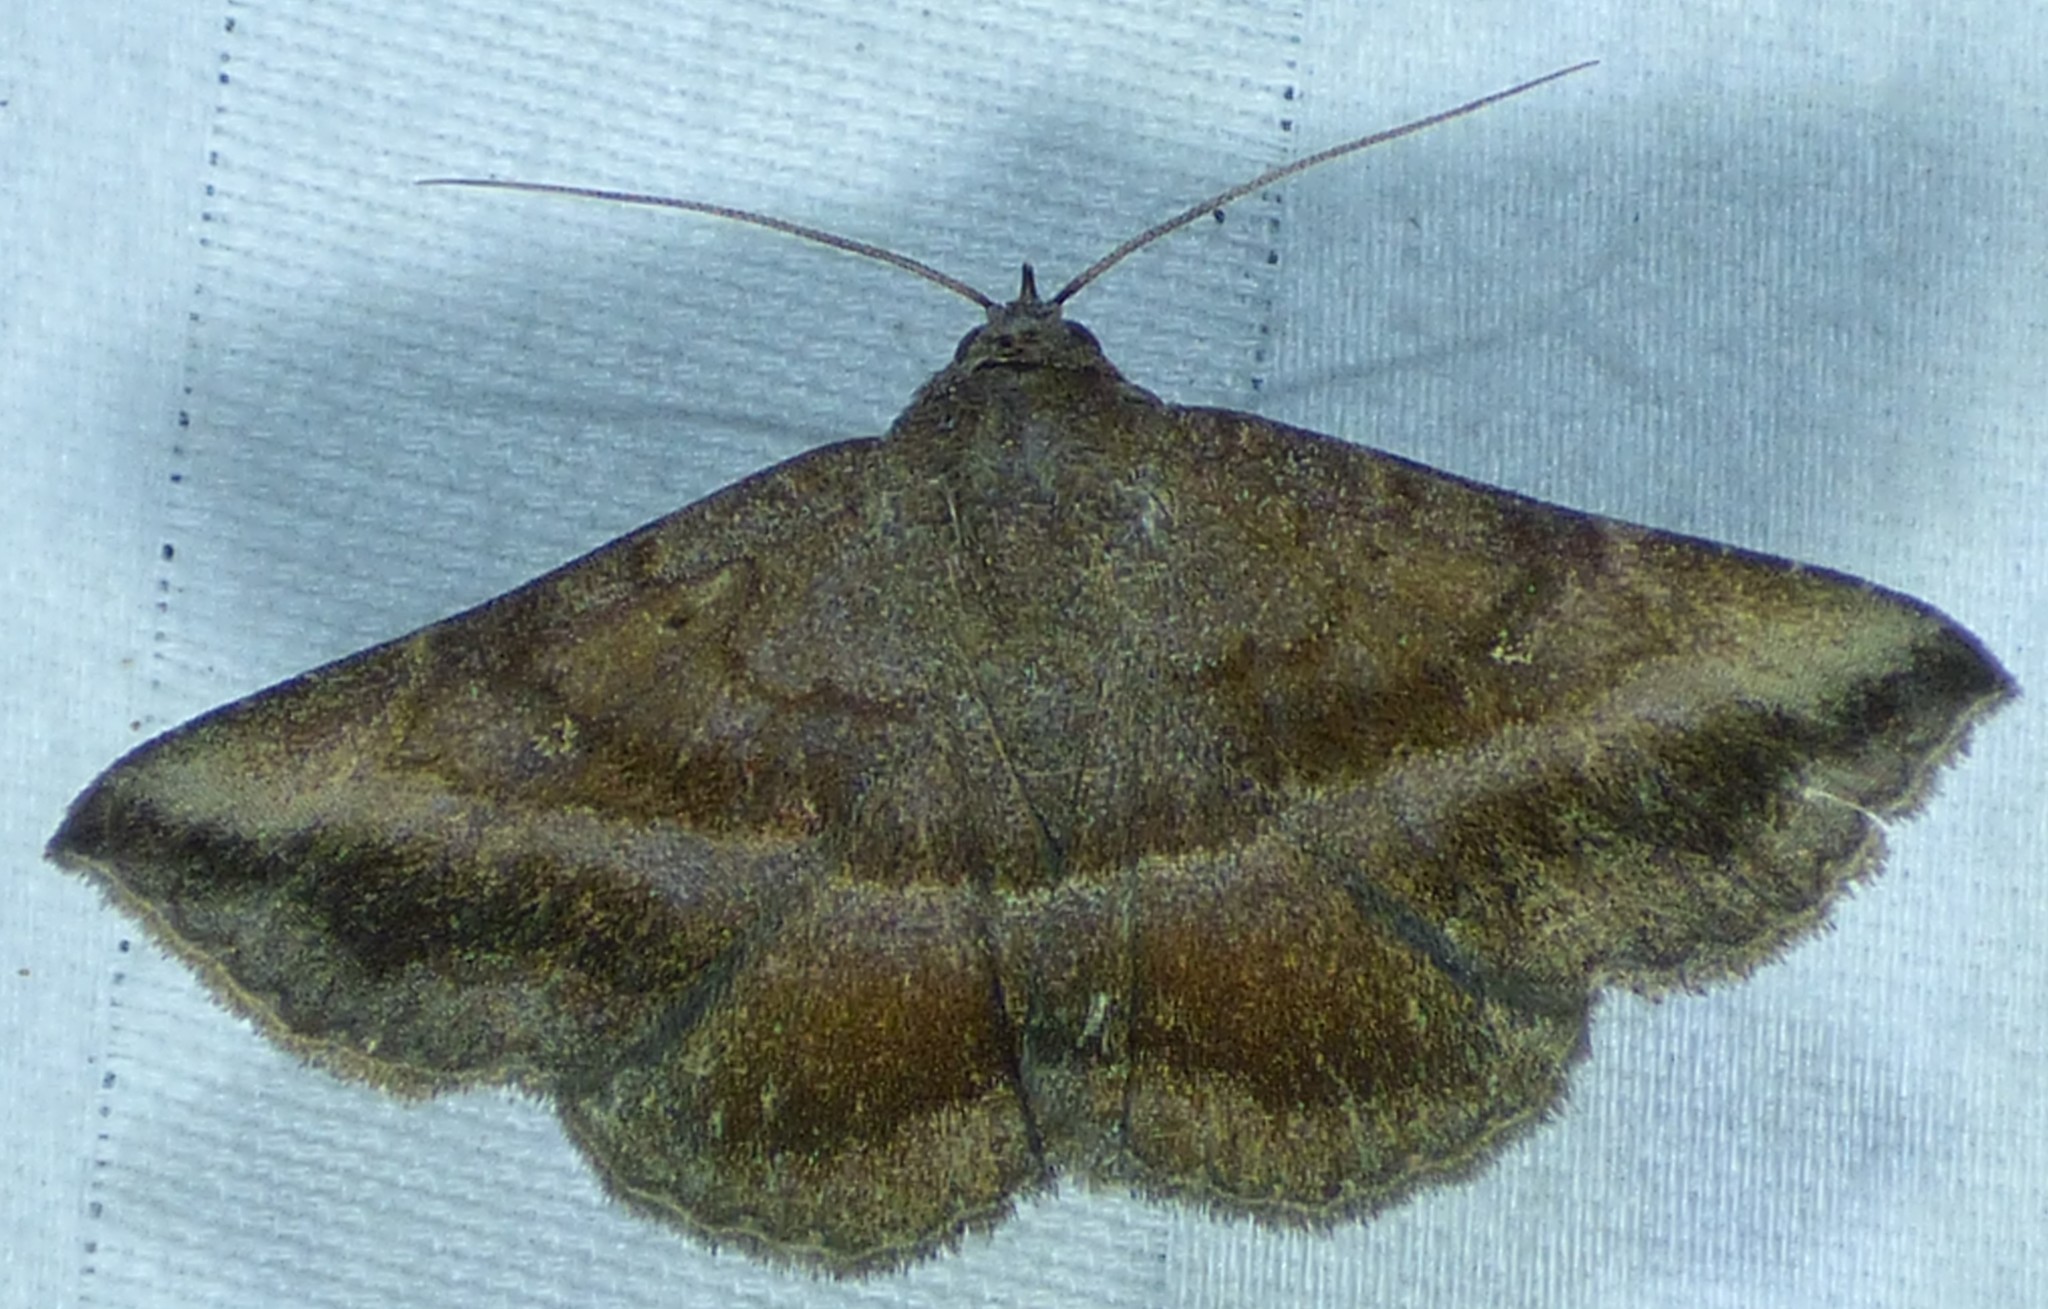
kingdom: Animalia
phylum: Arthropoda
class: Insecta
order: Lepidoptera
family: Erebidae
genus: Lesmone
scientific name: Lesmone detrahens
